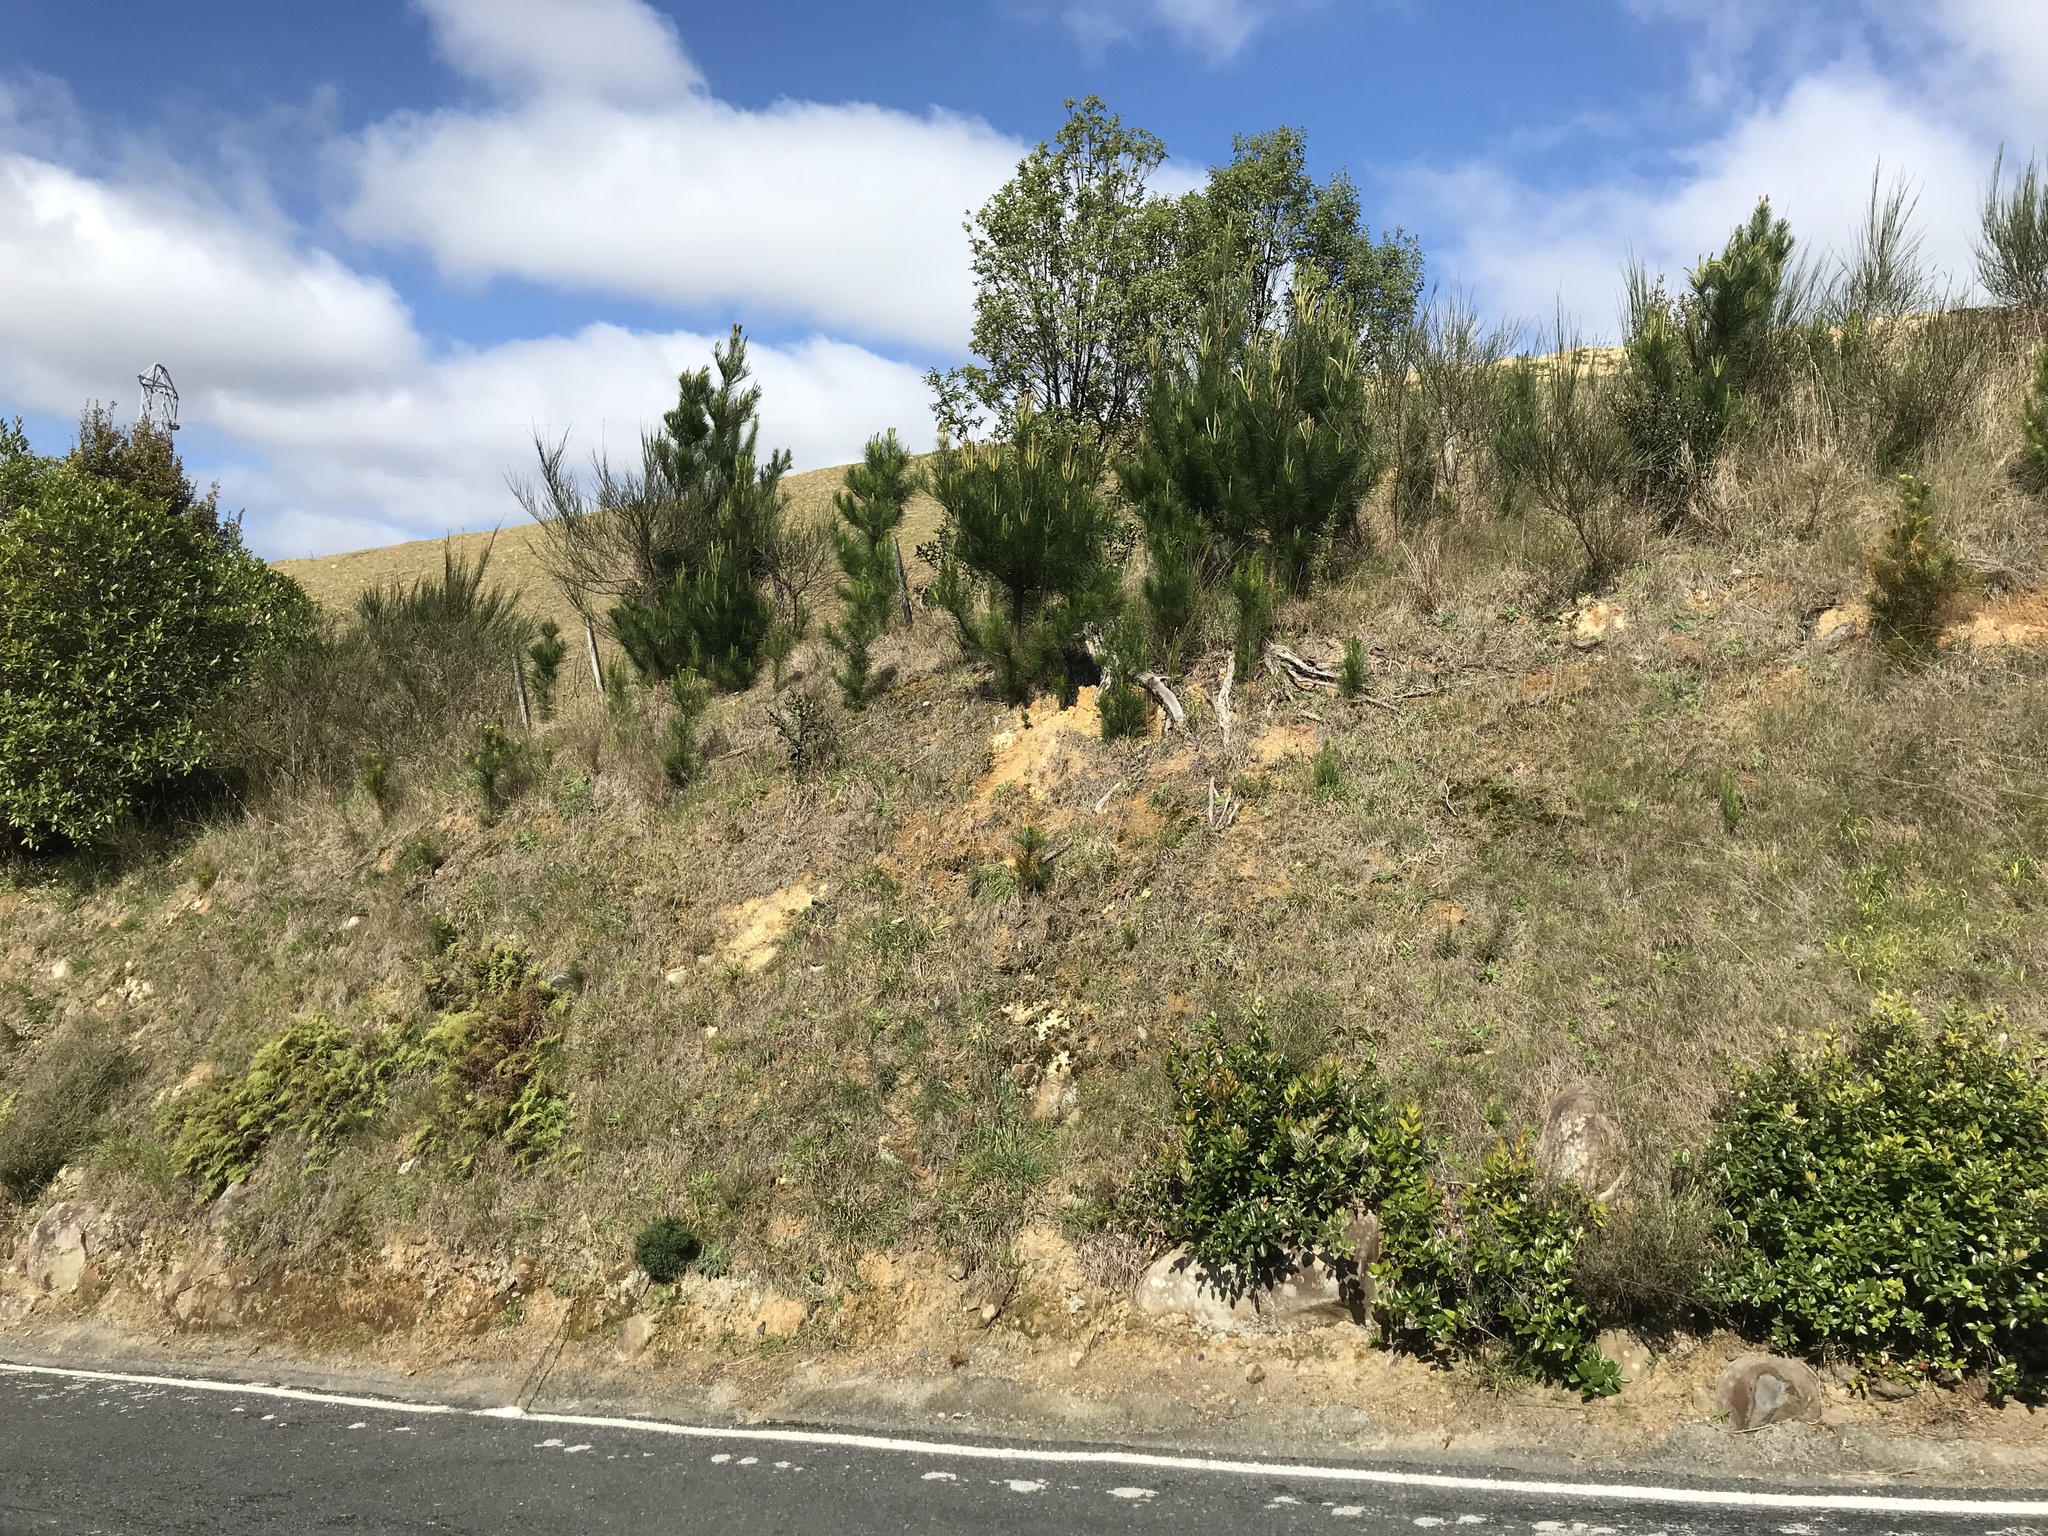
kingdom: Plantae
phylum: Tracheophyta
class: Pinopsida
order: Pinales
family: Pinaceae
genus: Pinus
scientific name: Pinus radiata
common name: Monterey pine
